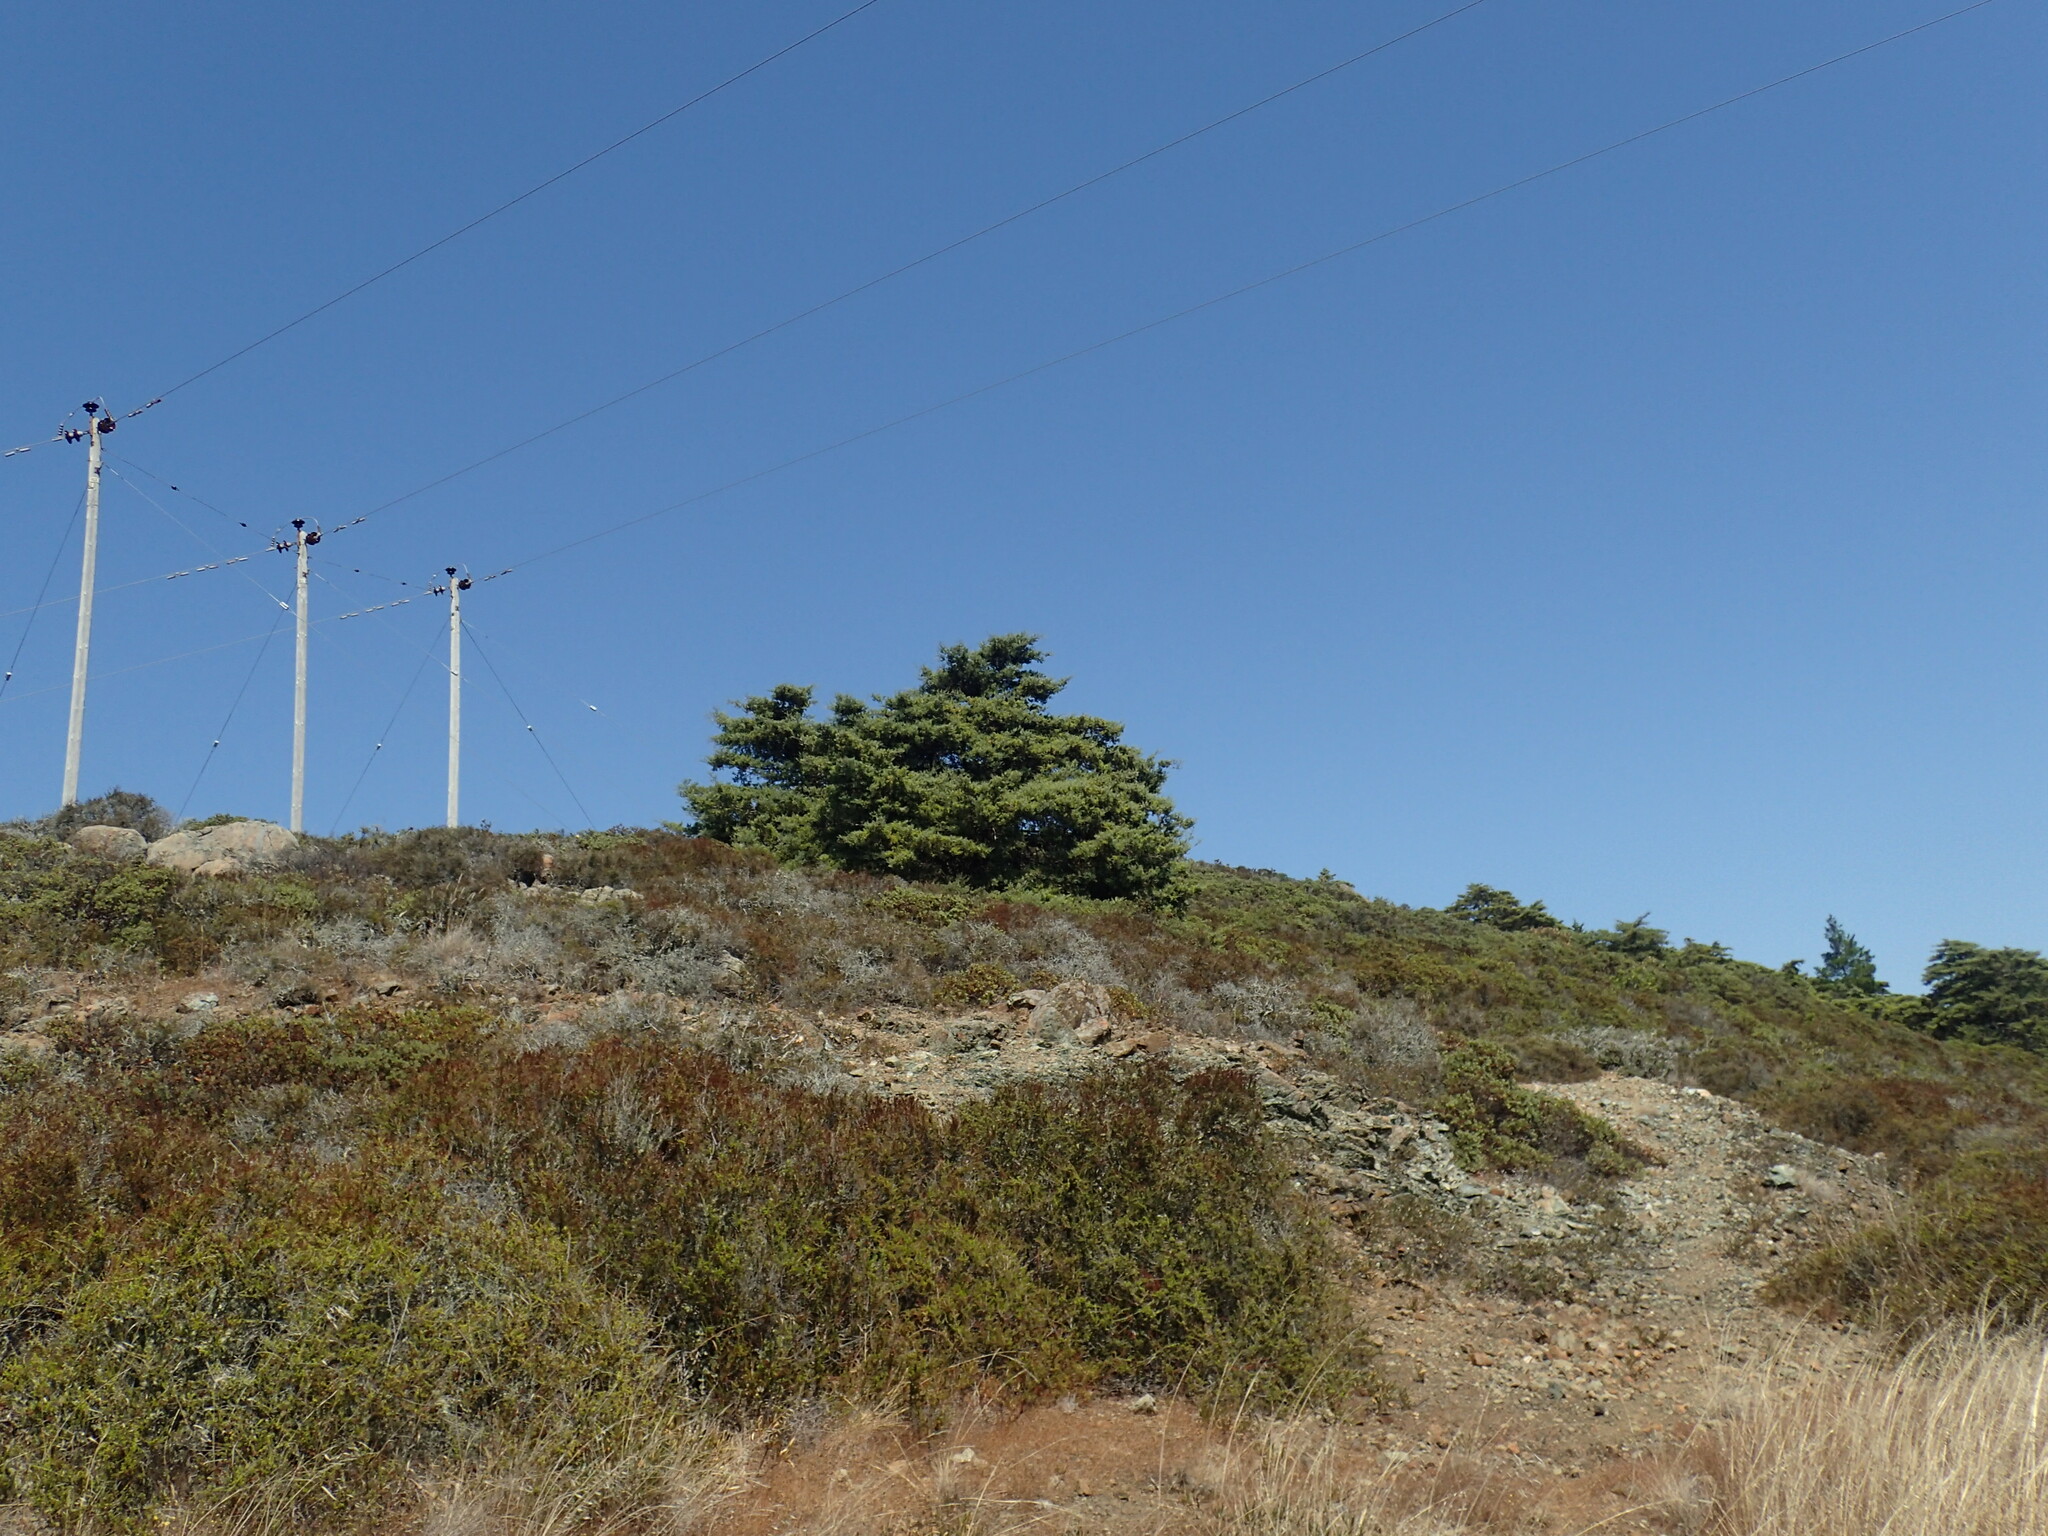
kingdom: Plantae
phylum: Tracheophyta
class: Pinopsida
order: Pinales
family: Cupressaceae
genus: Cupressus
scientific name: Cupressus sargentii
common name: Sargent cypress
